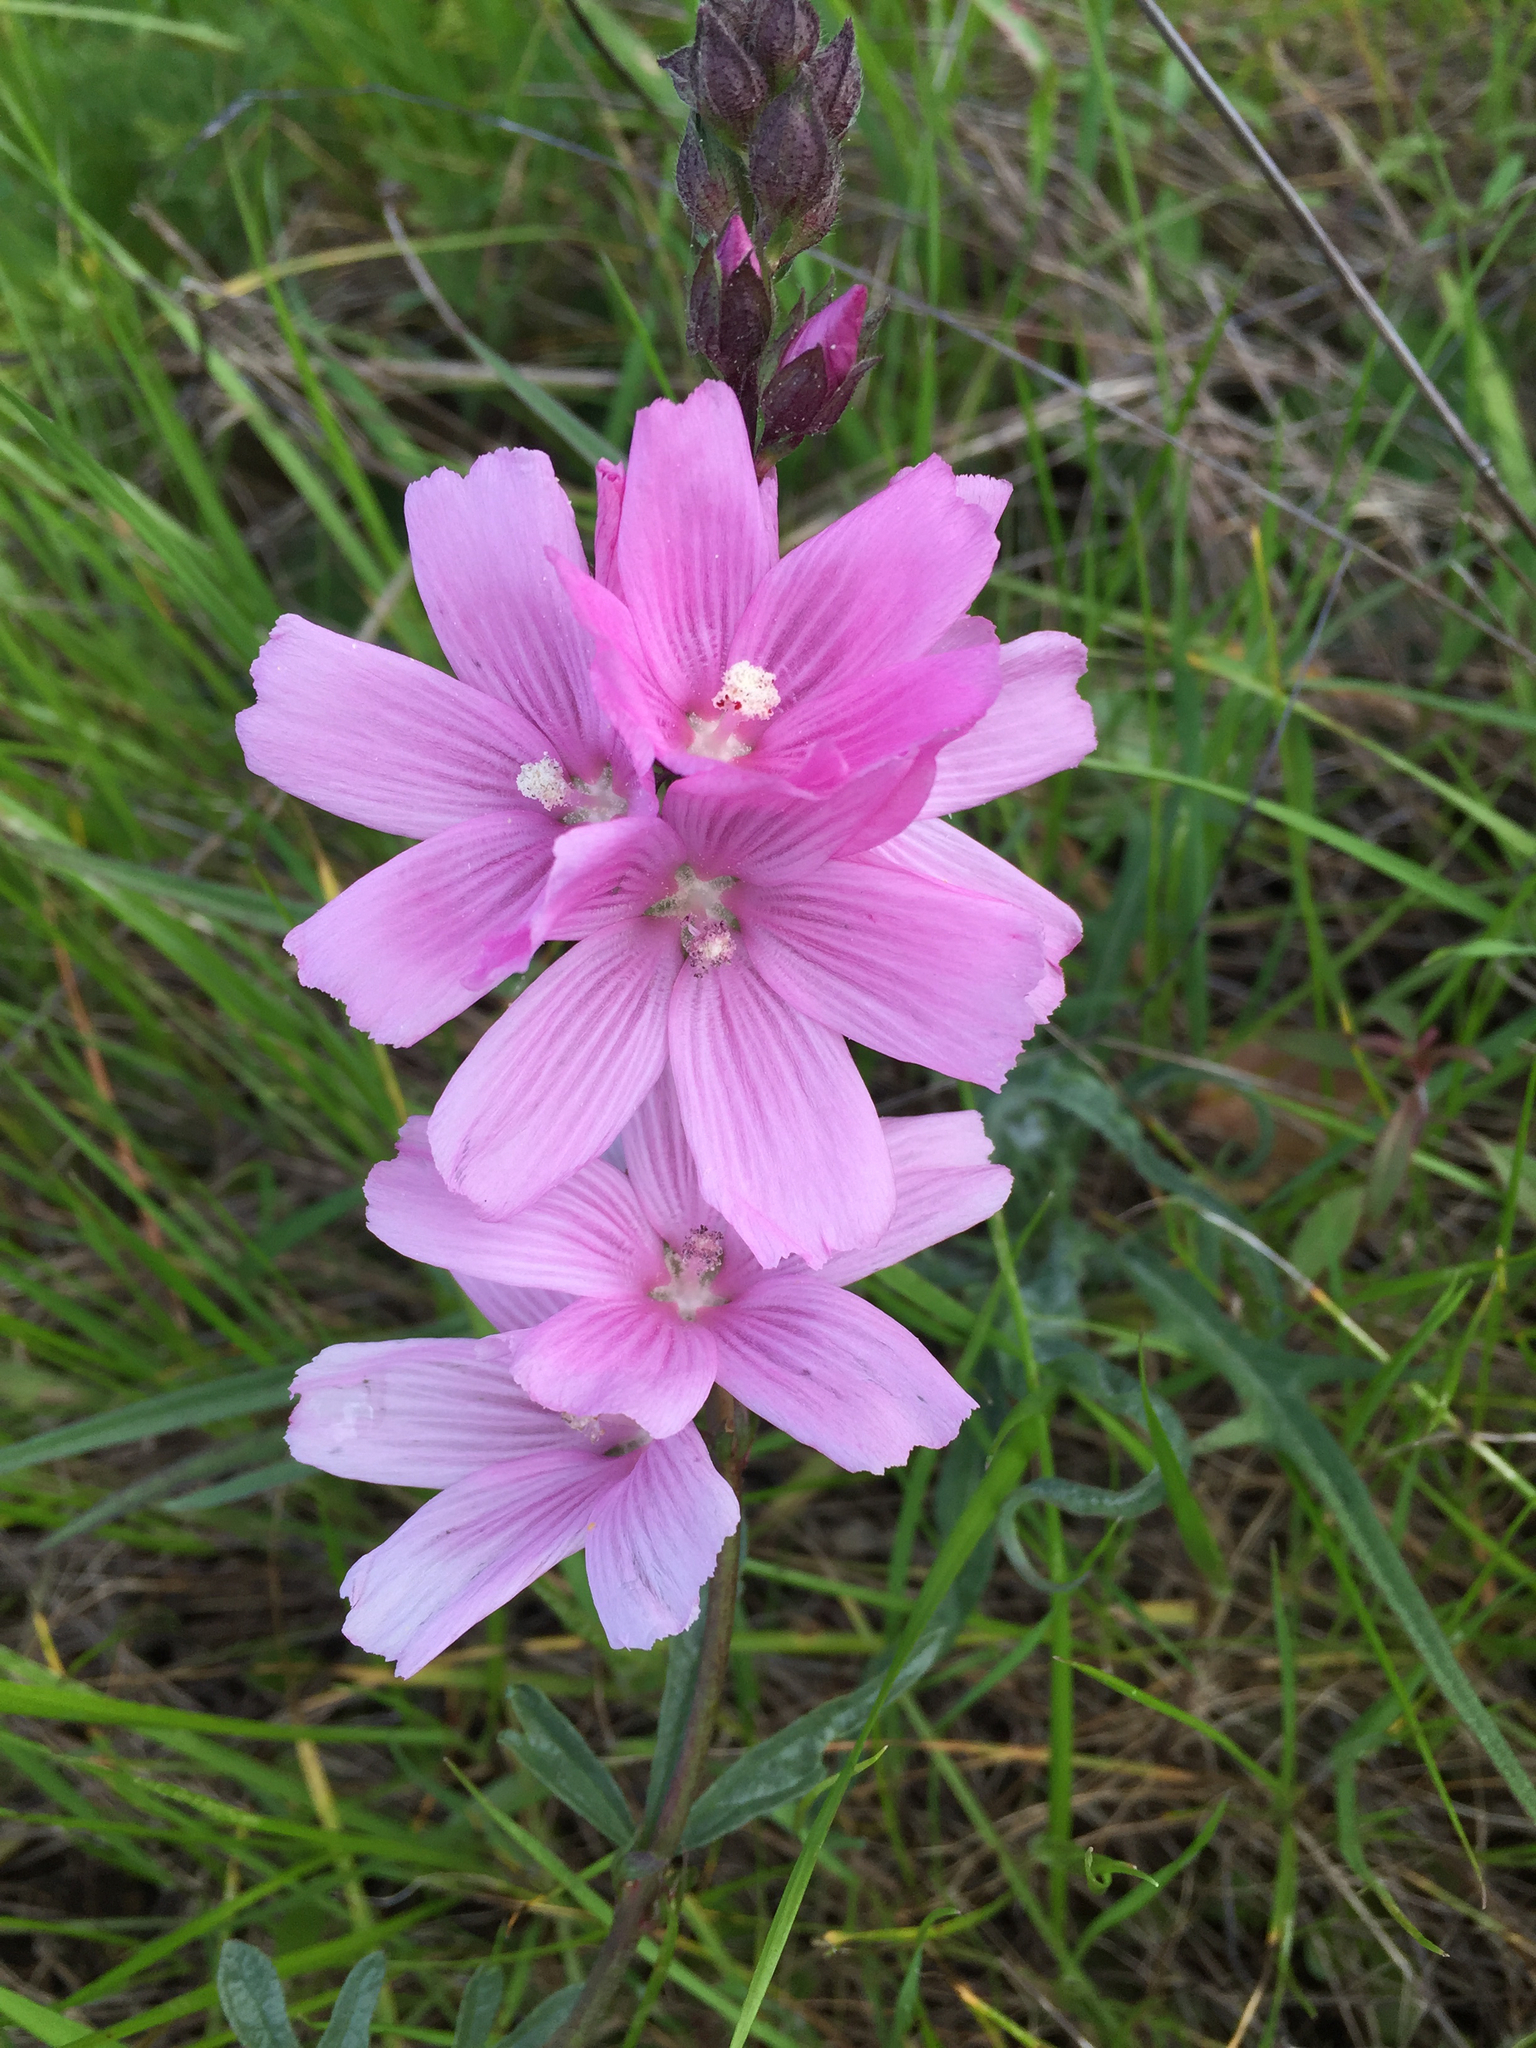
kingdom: Plantae
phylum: Tracheophyta
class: Magnoliopsida
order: Malvales
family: Malvaceae
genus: Sidalcea
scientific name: Sidalcea malviflora
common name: Greek mallow
